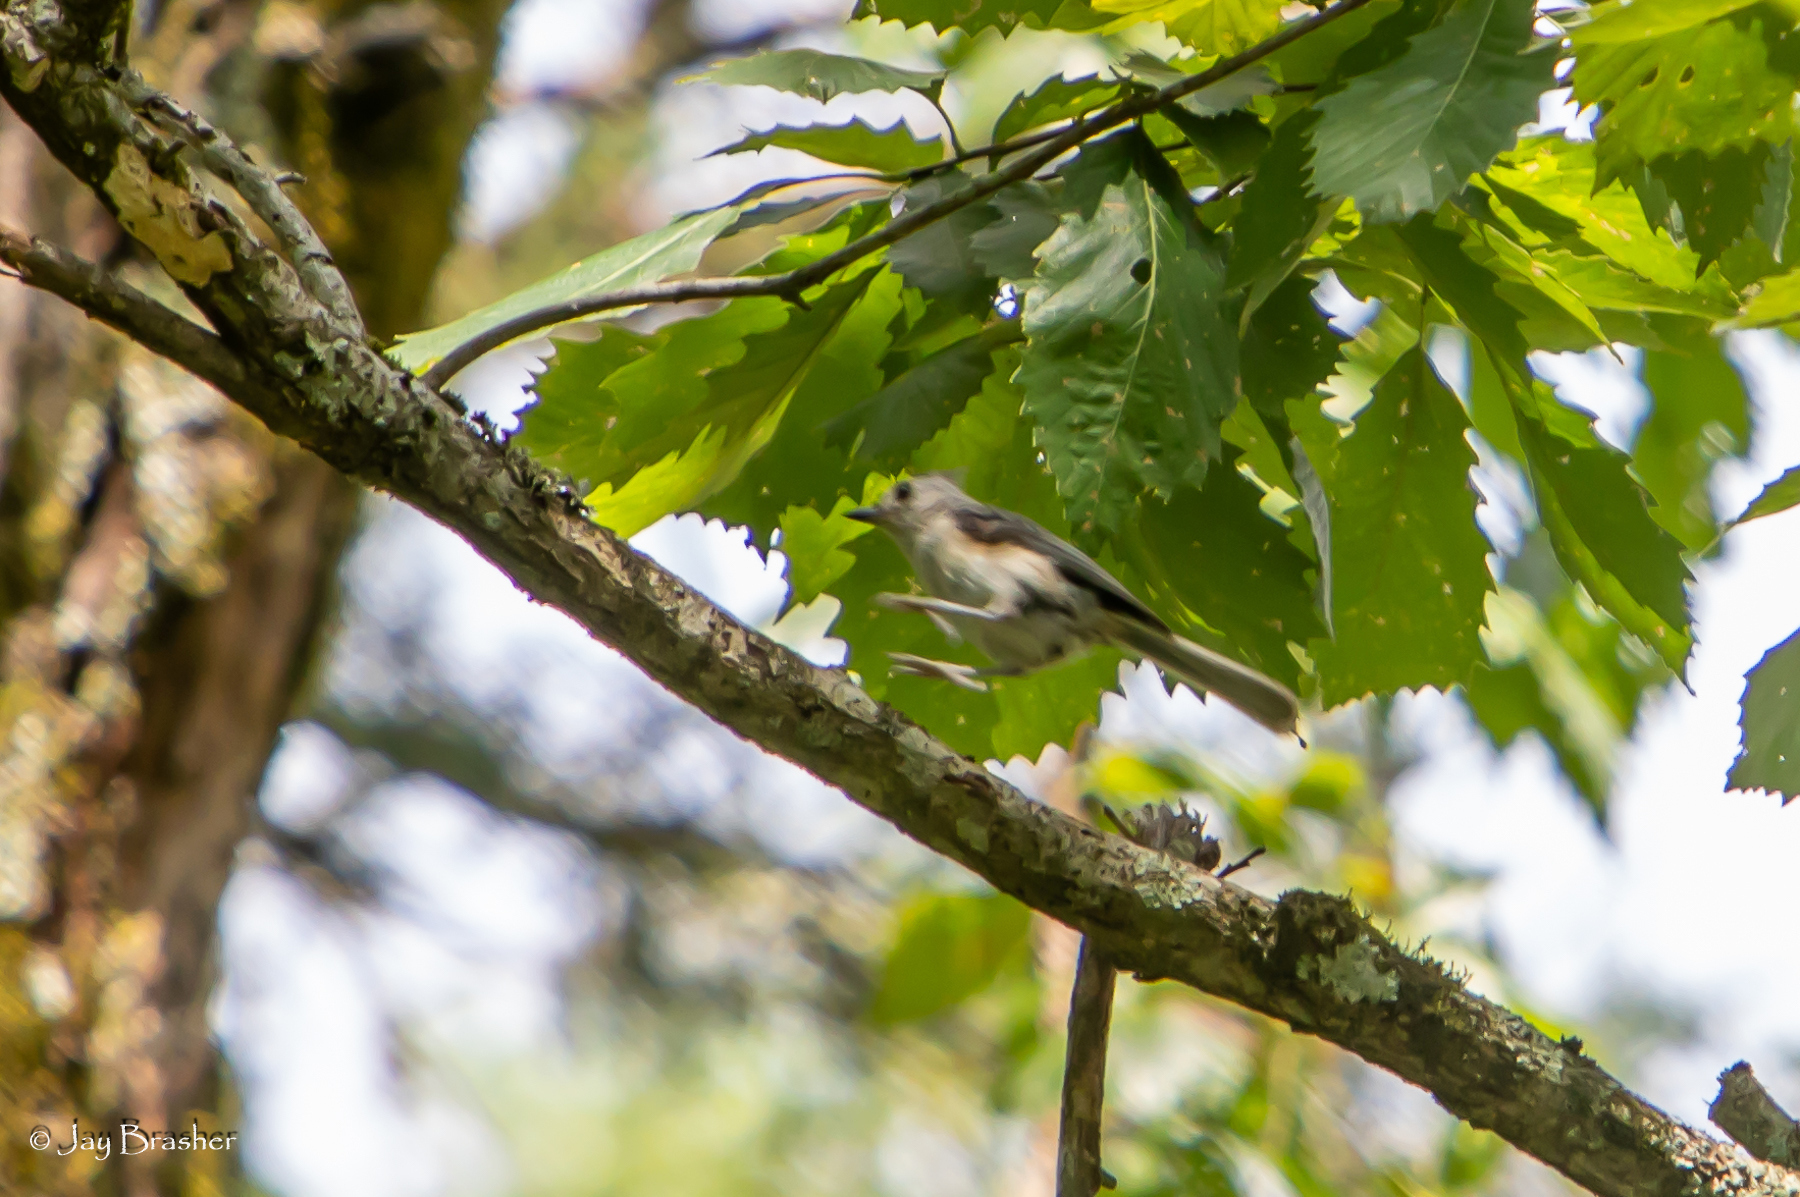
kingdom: Animalia
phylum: Chordata
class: Aves
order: Passeriformes
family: Paridae
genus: Baeolophus
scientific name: Baeolophus bicolor
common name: Tufted titmouse
